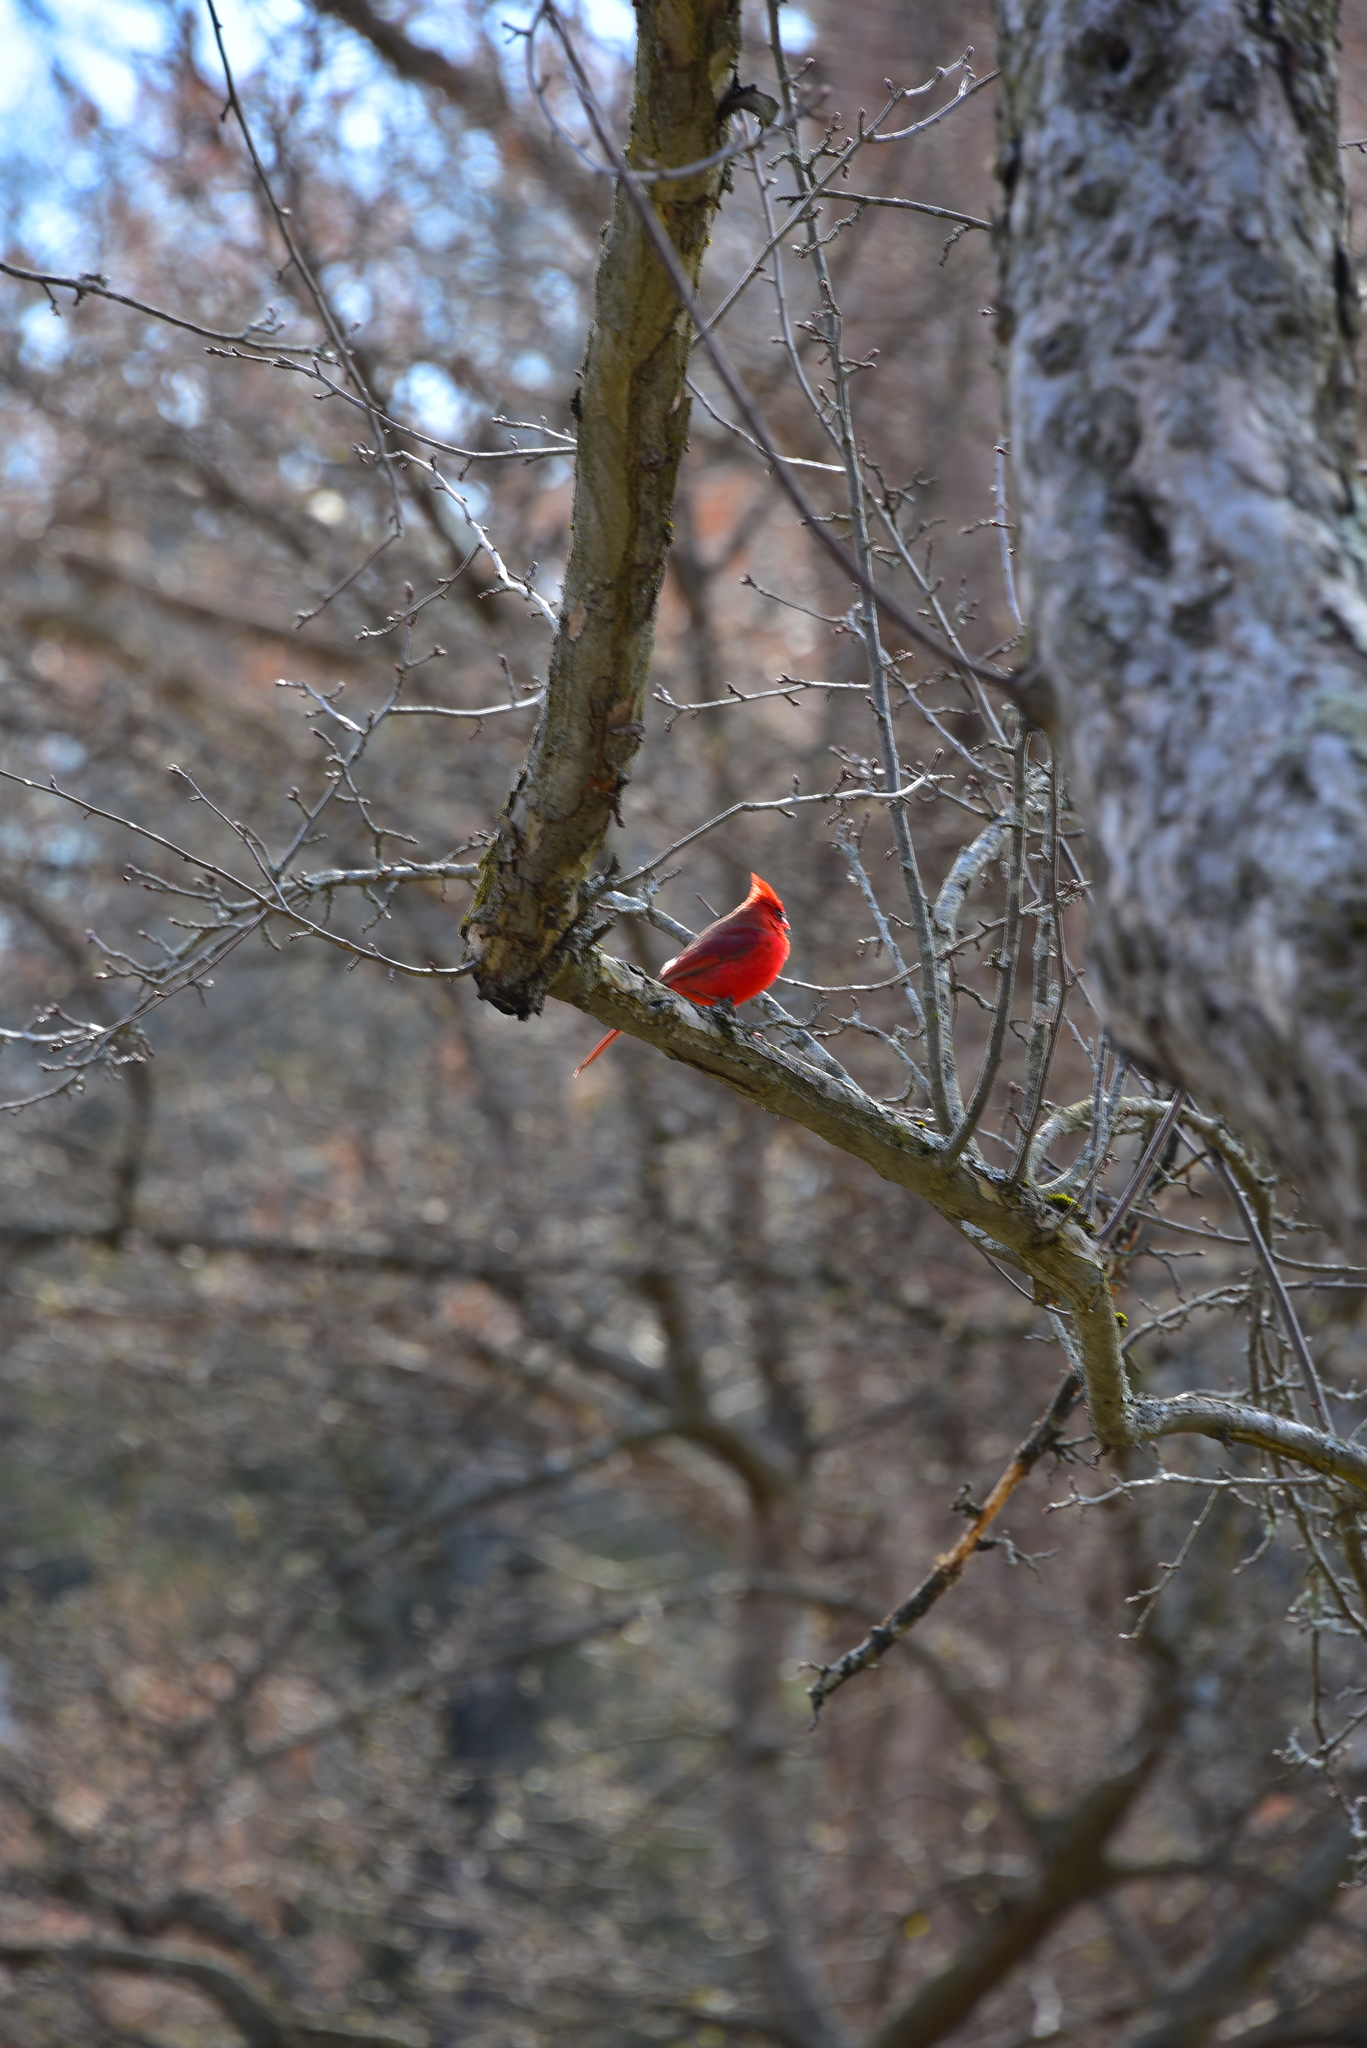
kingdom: Animalia
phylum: Chordata
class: Aves
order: Passeriformes
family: Cardinalidae
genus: Cardinalis
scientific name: Cardinalis cardinalis
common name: Northern cardinal
